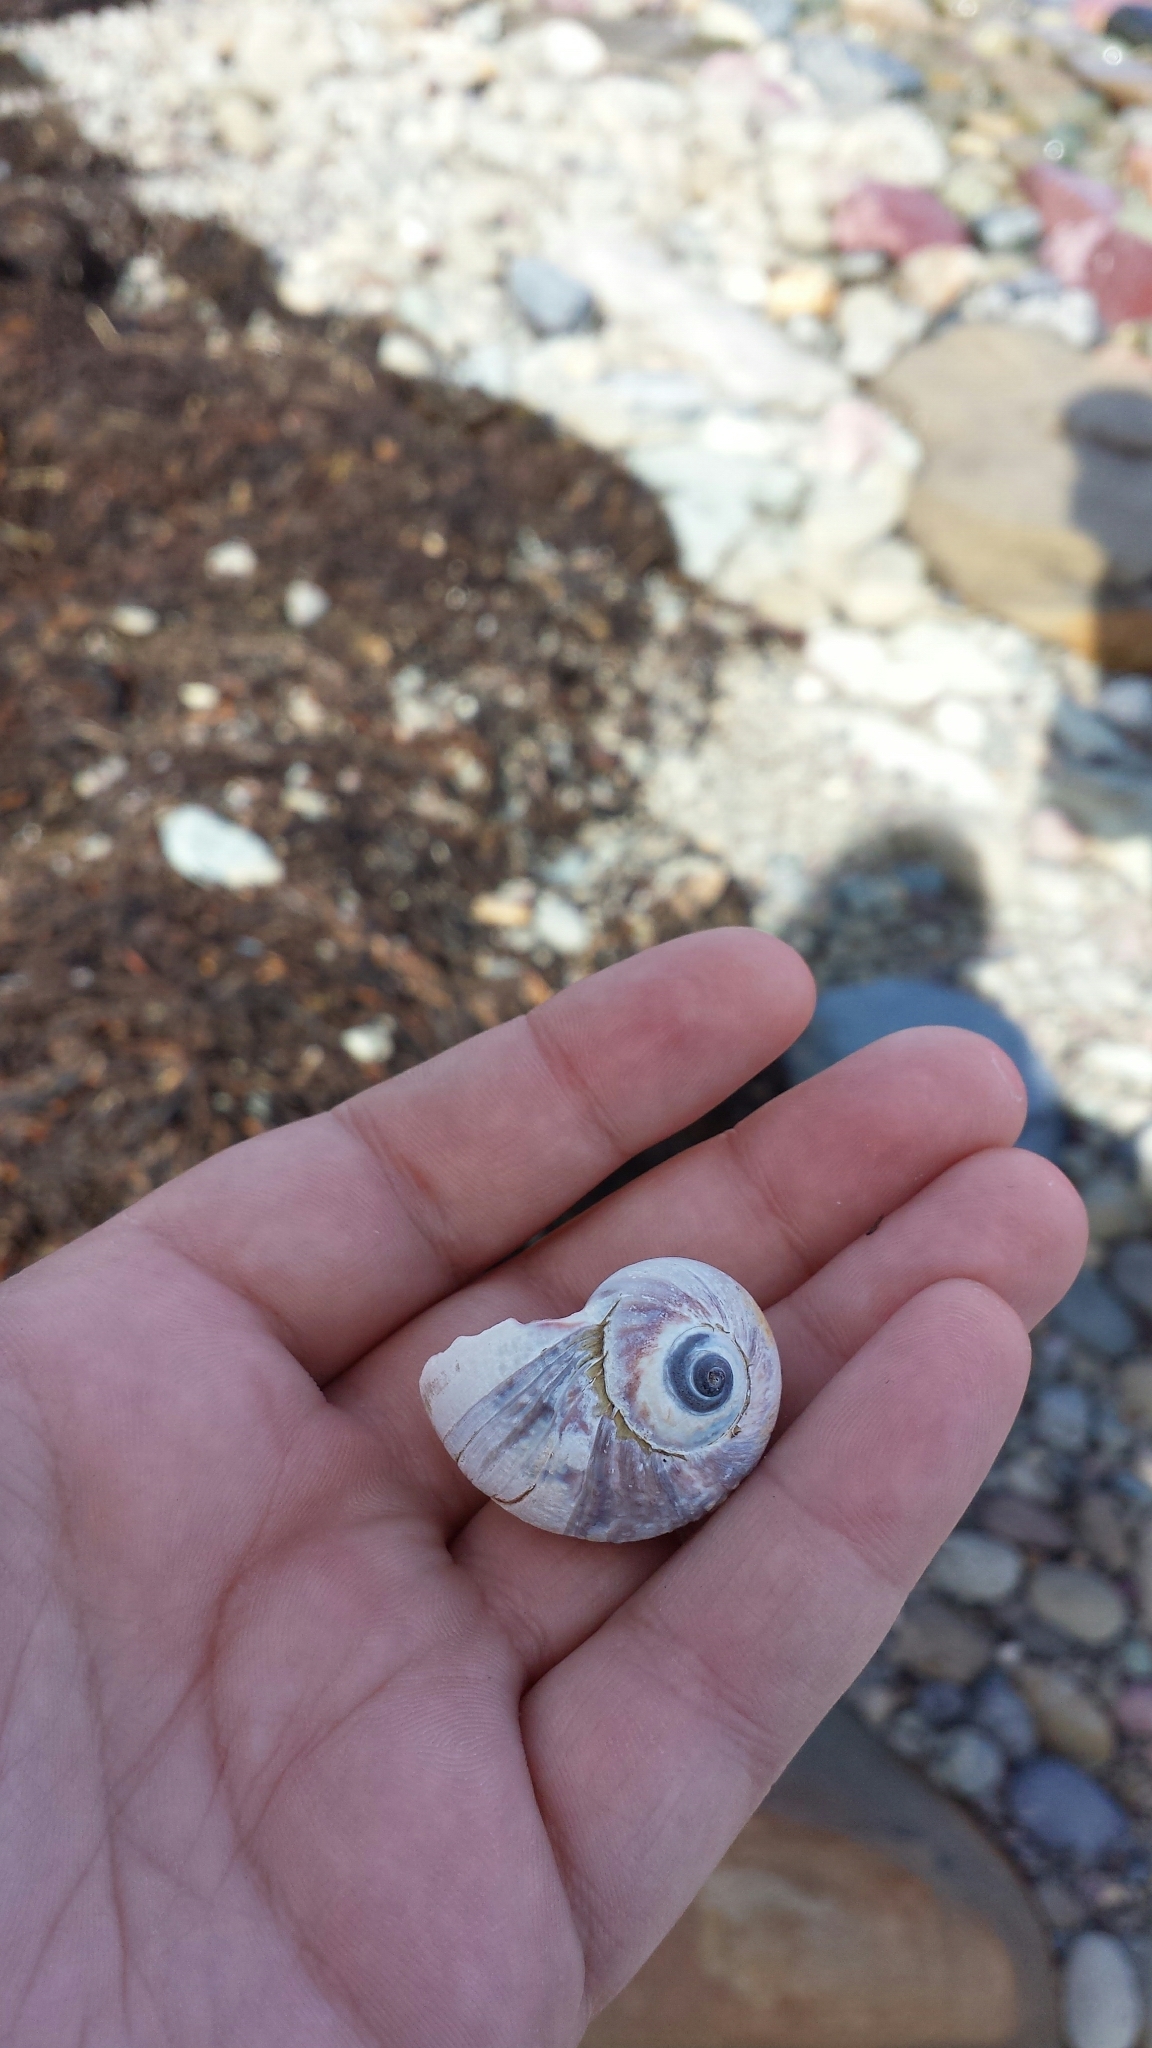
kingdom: Animalia
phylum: Mollusca
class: Gastropoda
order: Littorinimorpha
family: Naticidae
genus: Euspira
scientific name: Euspira heros
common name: Common northern moonsnail
